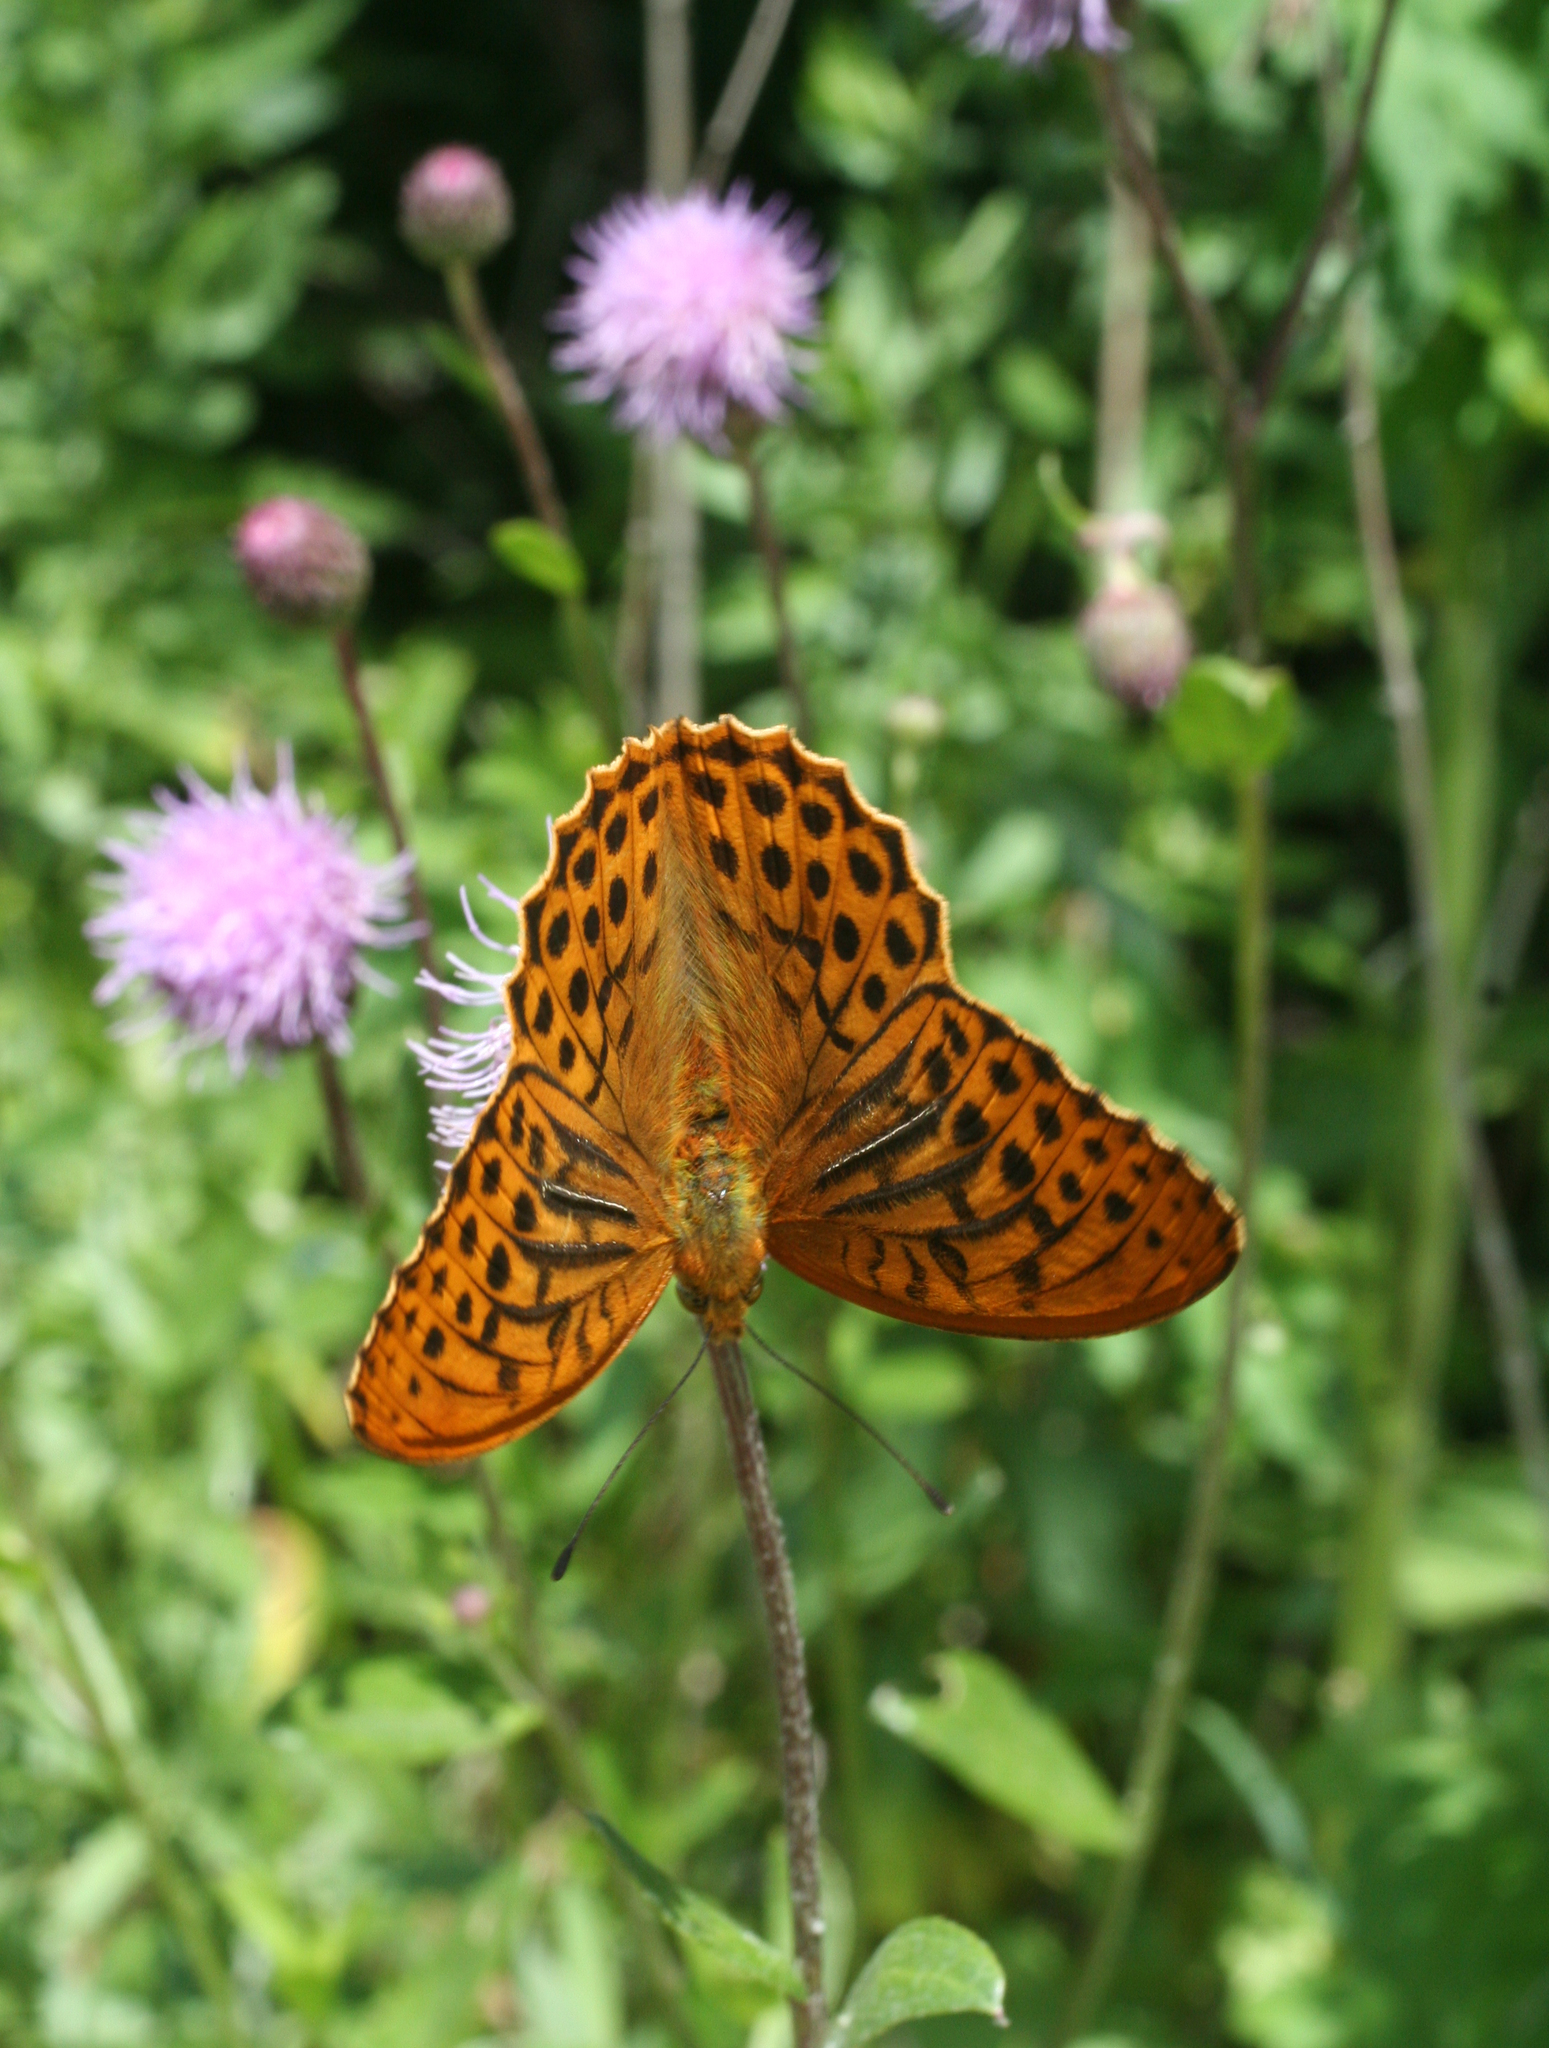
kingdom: Animalia
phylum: Arthropoda
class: Insecta
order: Lepidoptera
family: Nymphalidae
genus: Argynnis
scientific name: Argynnis paphia
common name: Silver-washed fritillary
